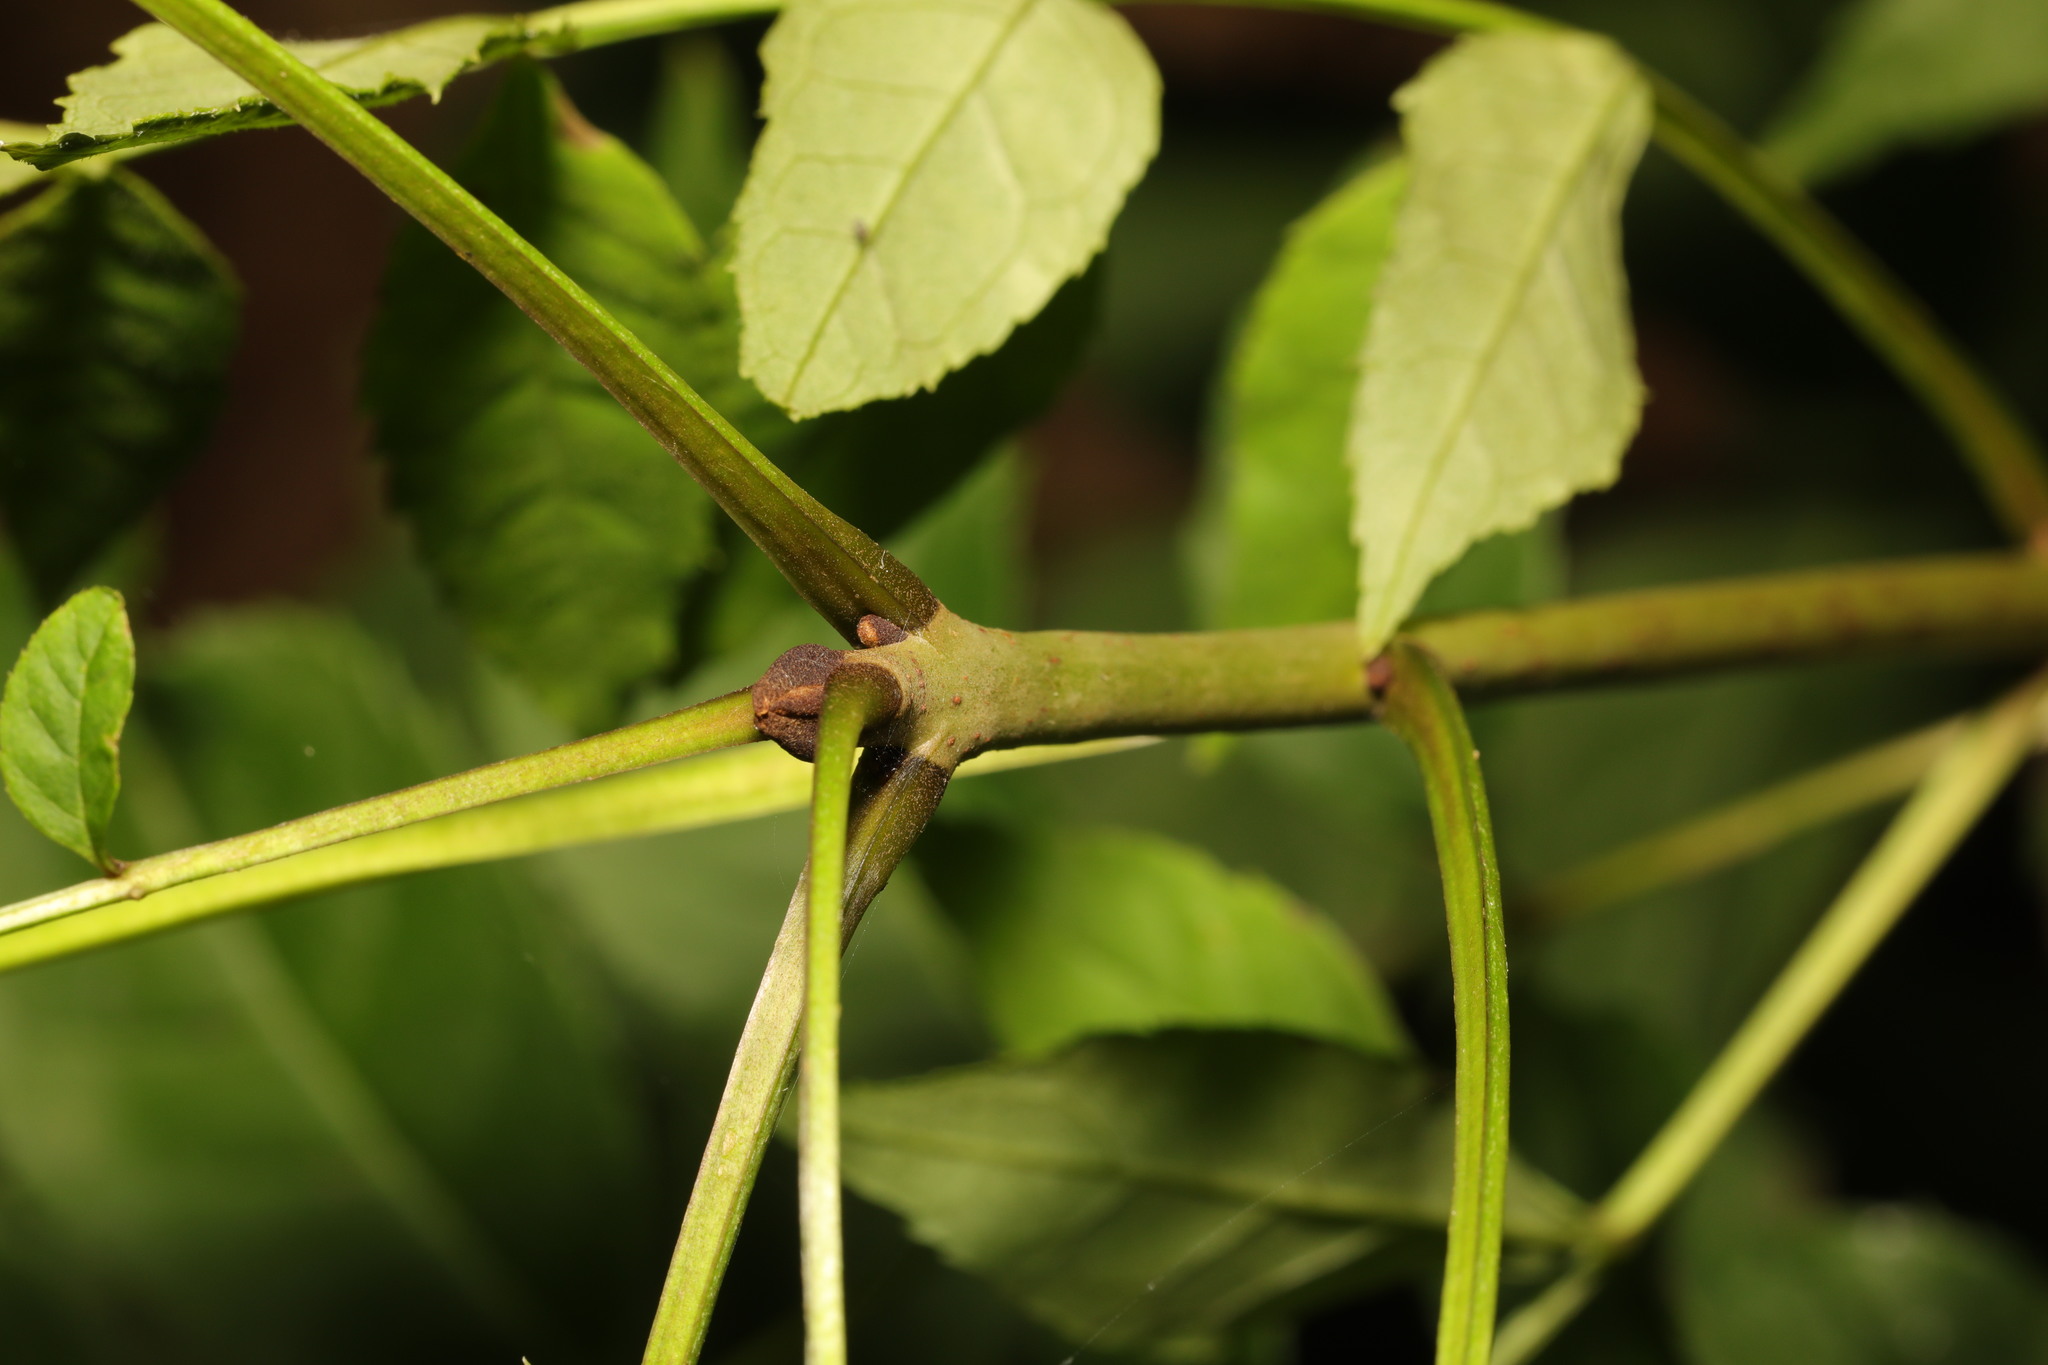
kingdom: Plantae
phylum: Tracheophyta
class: Magnoliopsida
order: Lamiales
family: Oleaceae
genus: Fraxinus
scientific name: Fraxinus excelsior
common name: European ash
